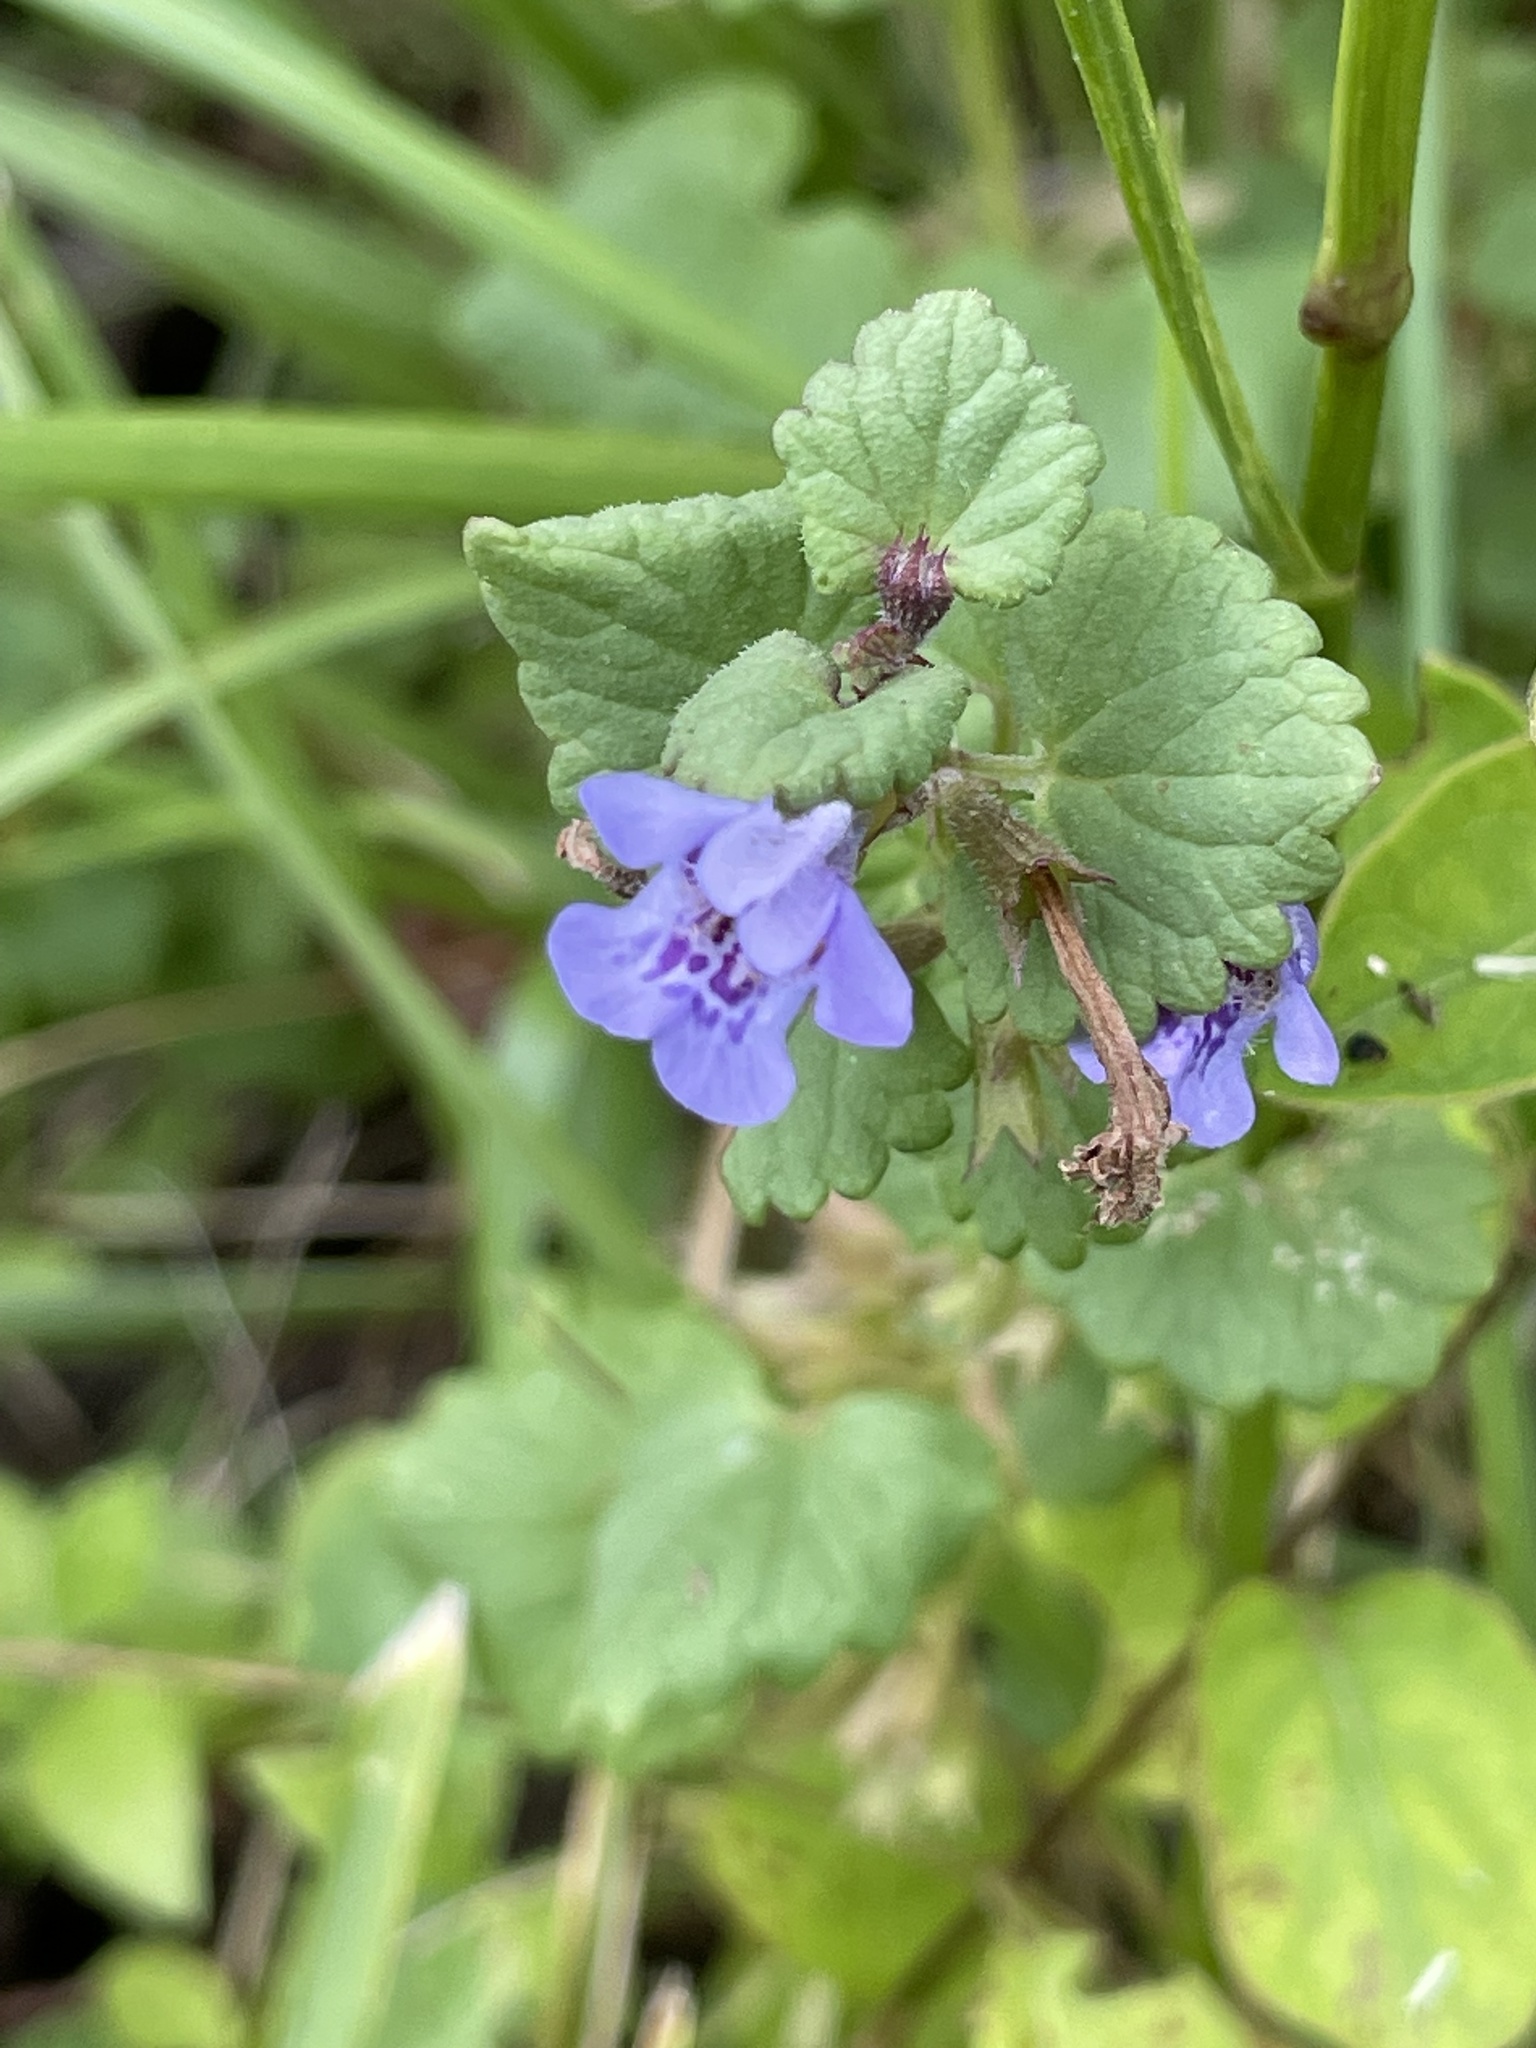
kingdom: Plantae
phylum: Tracheophyta
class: Magnoliopsida
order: Lamiales
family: Lamiaceae
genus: Glechoma
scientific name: Glechoma hederacea
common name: Ground ivy
